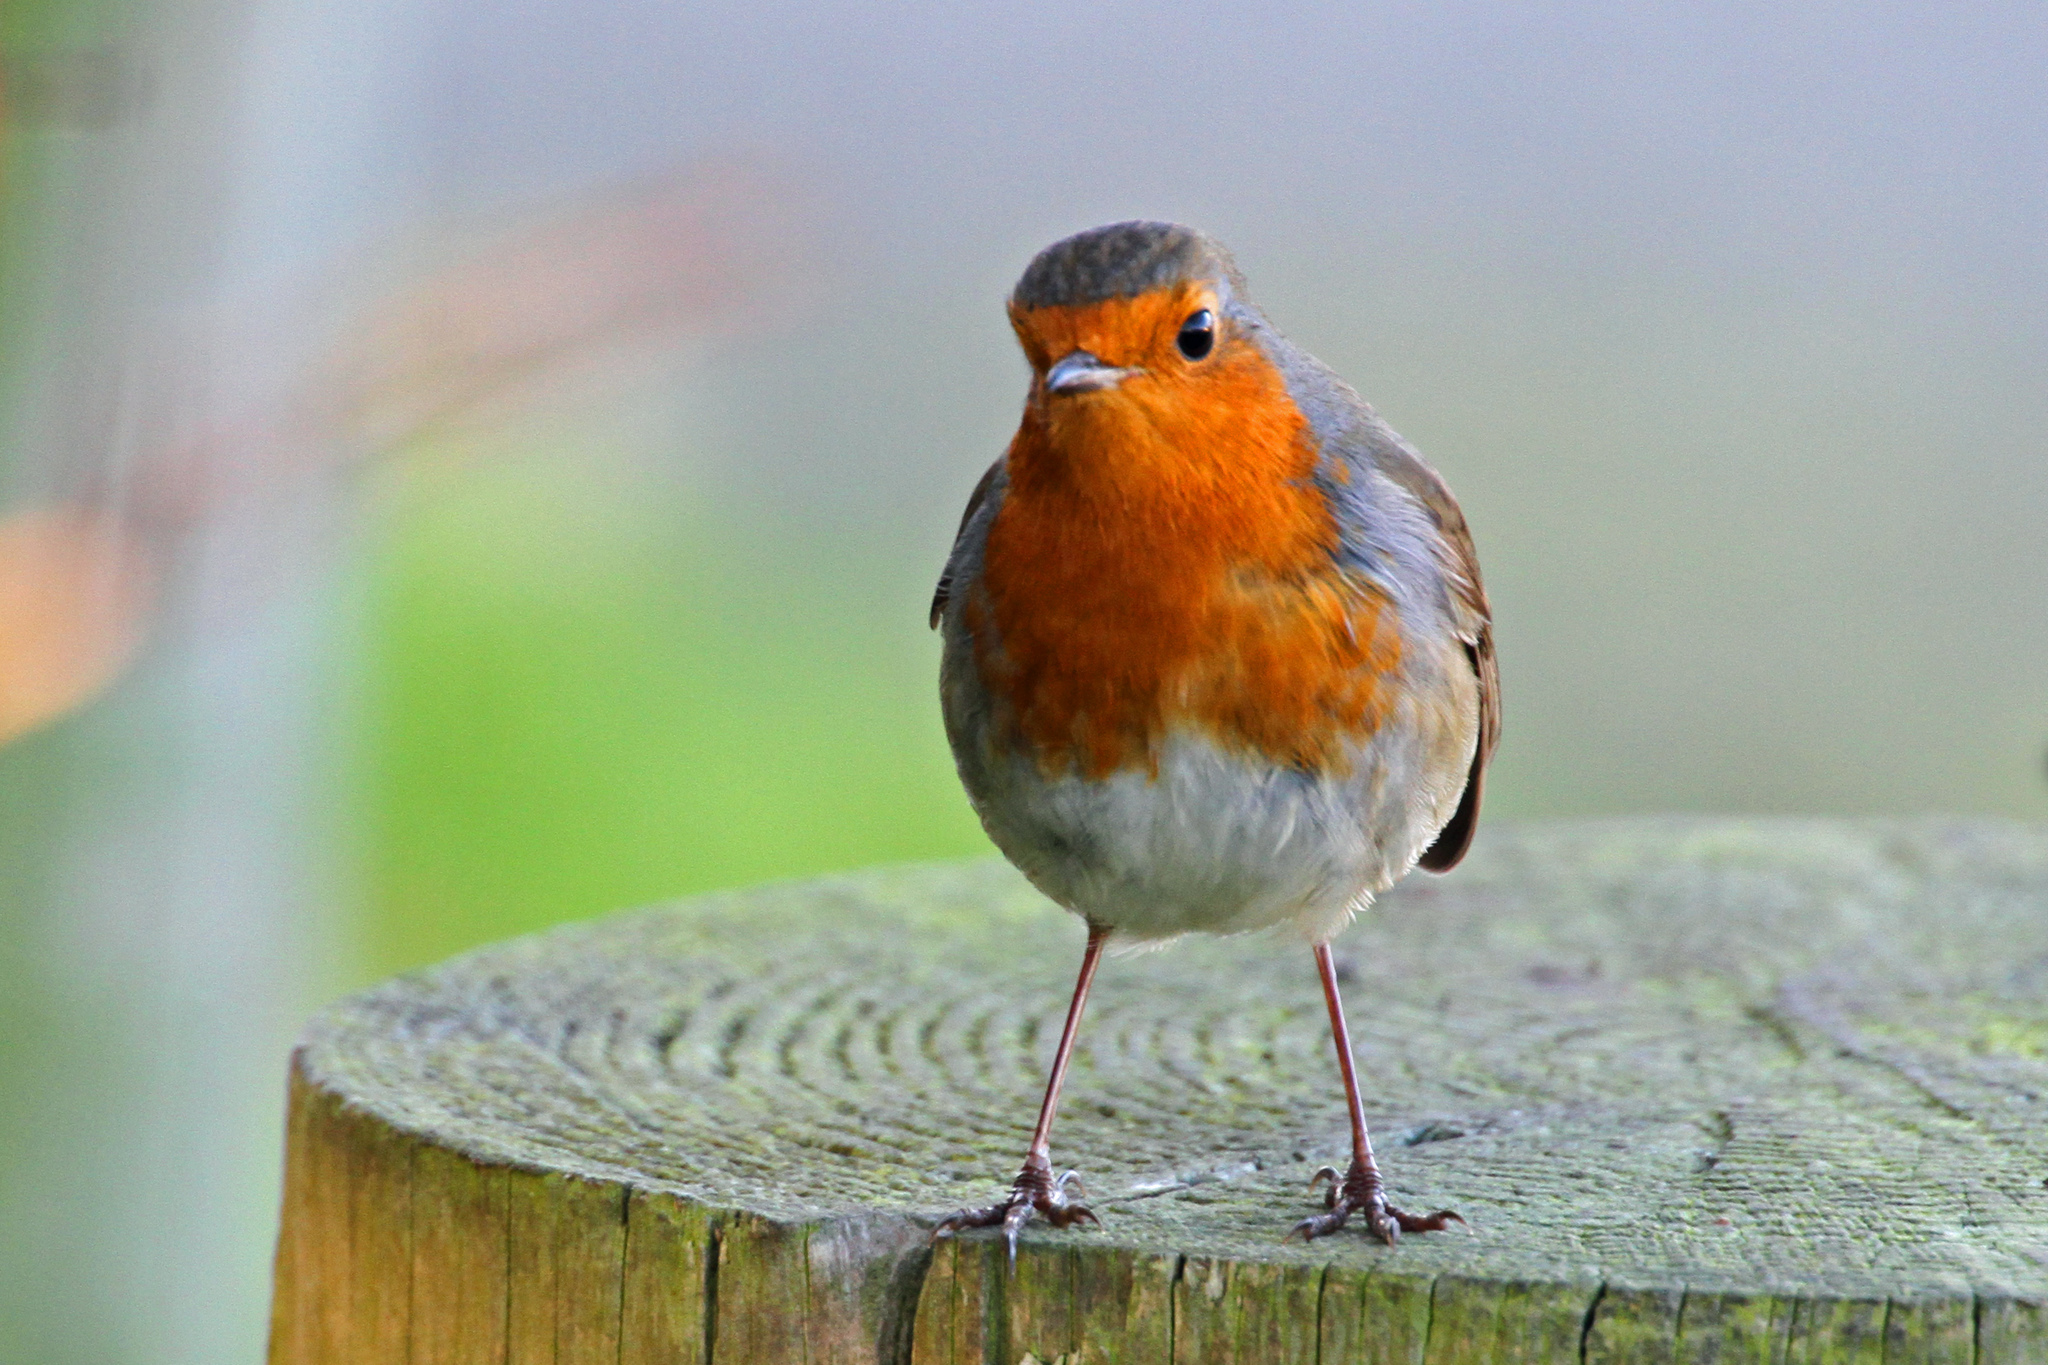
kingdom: Animalia
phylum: Chordata
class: Aves
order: Passeriformes
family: Muscicapidae
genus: Erithacus
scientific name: Erithacus rubecula
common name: European robin
